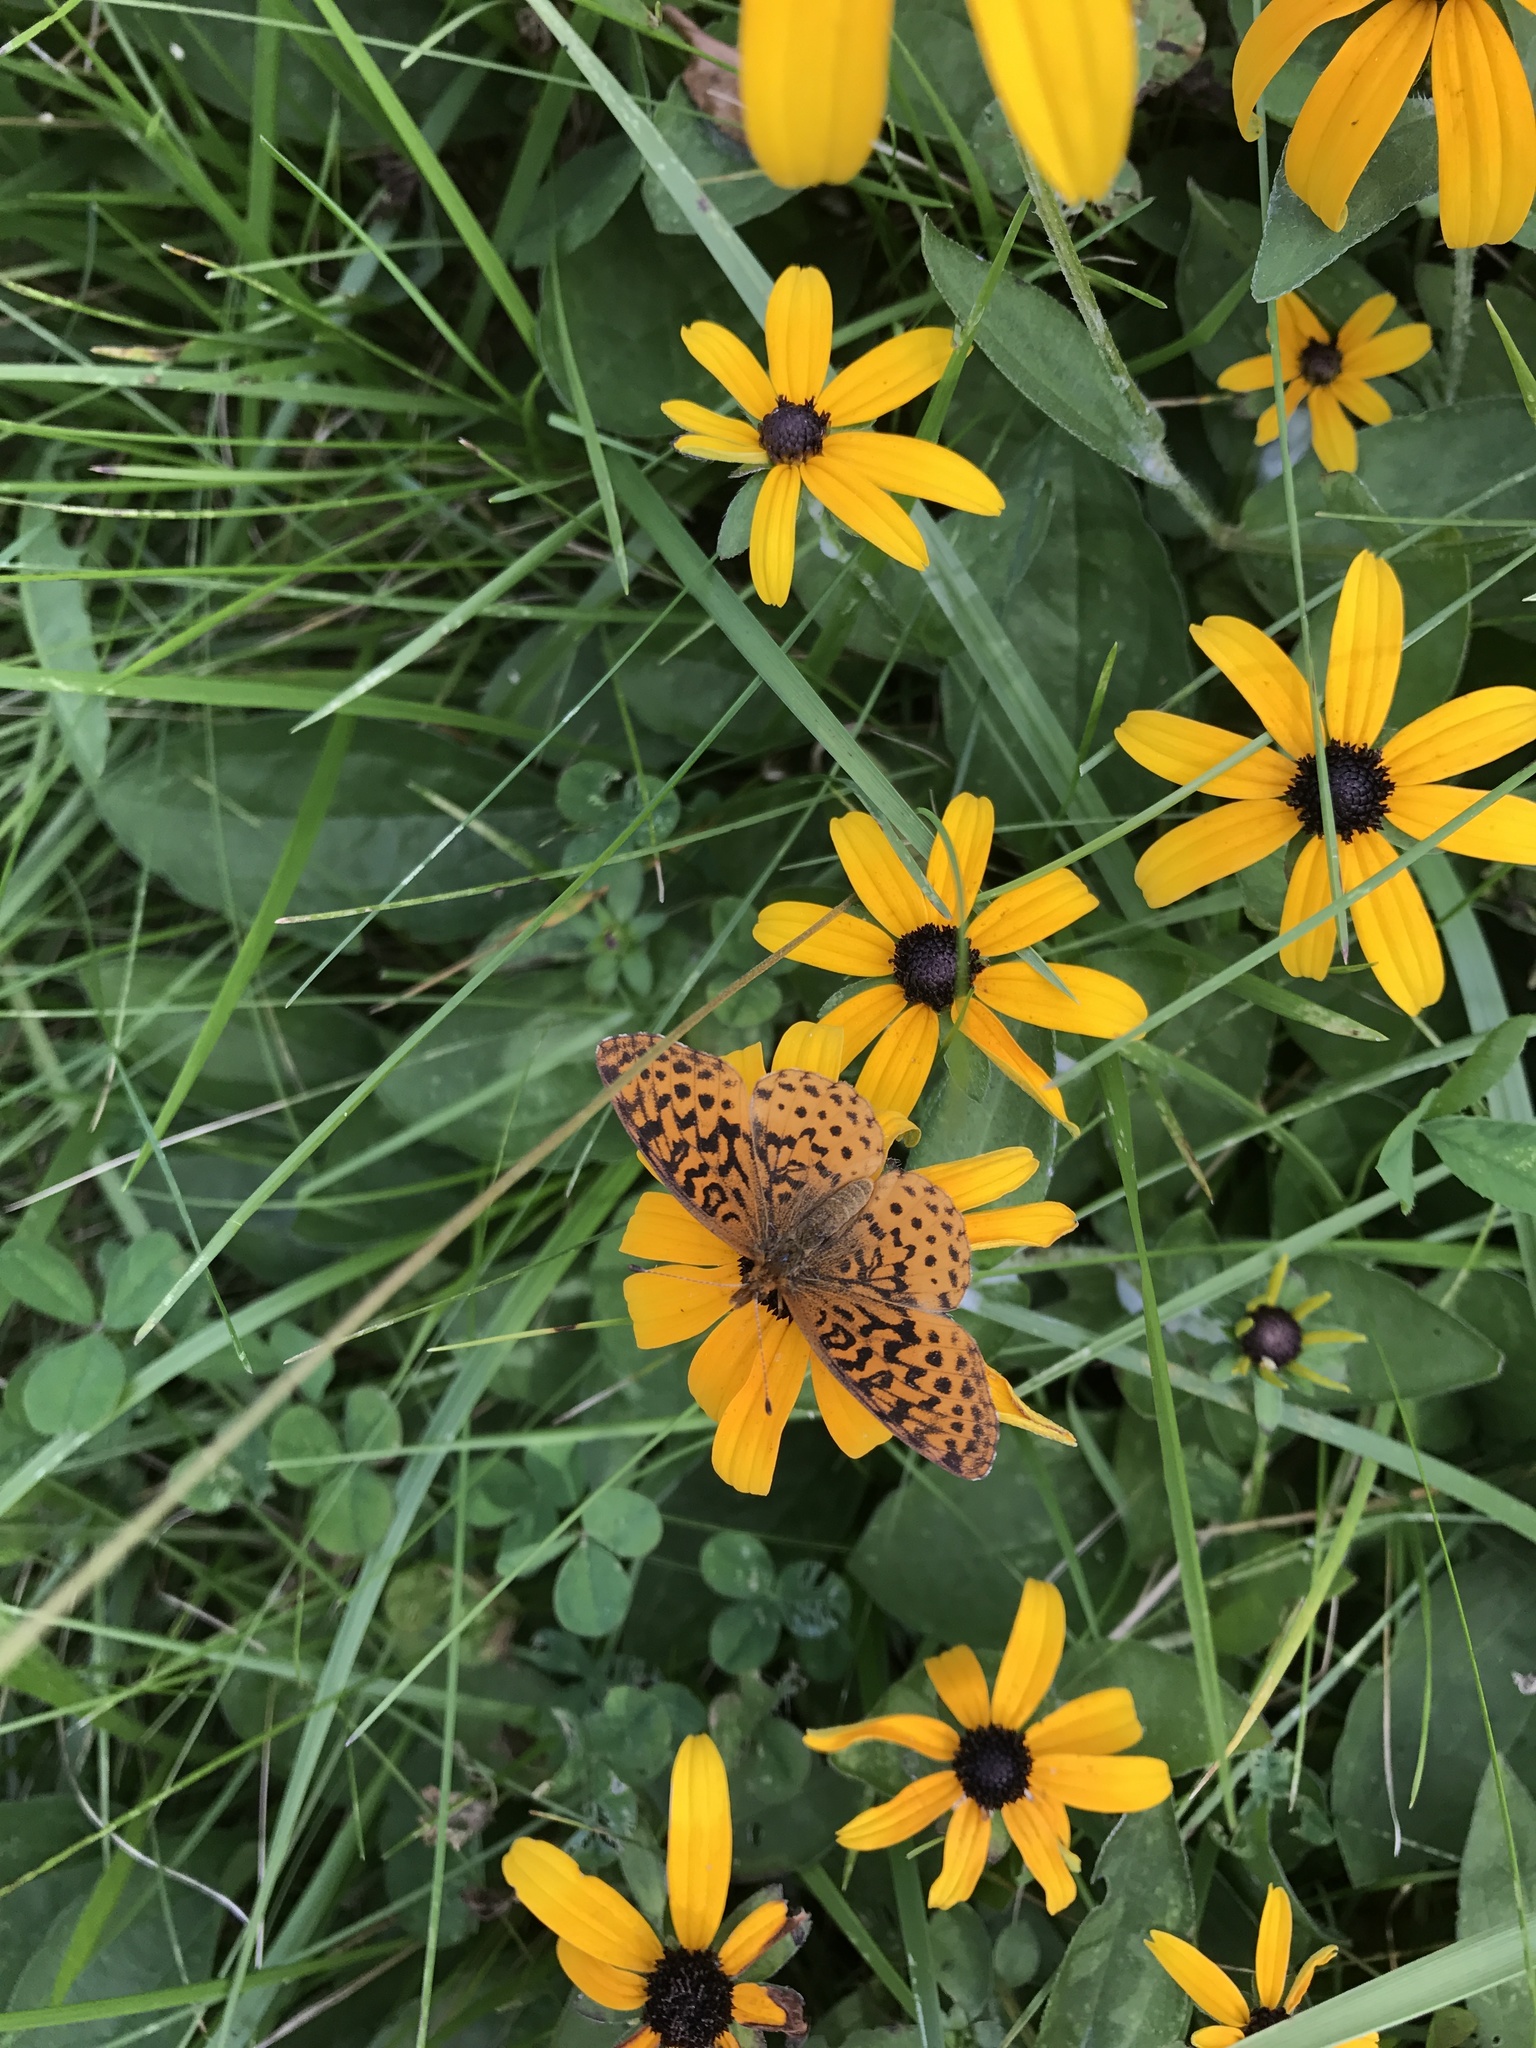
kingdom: Animalia
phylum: Arthropoda
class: Insecta
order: Lepidoptera
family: Nymphalidae
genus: Clossiana
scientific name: Clossiana toddi
